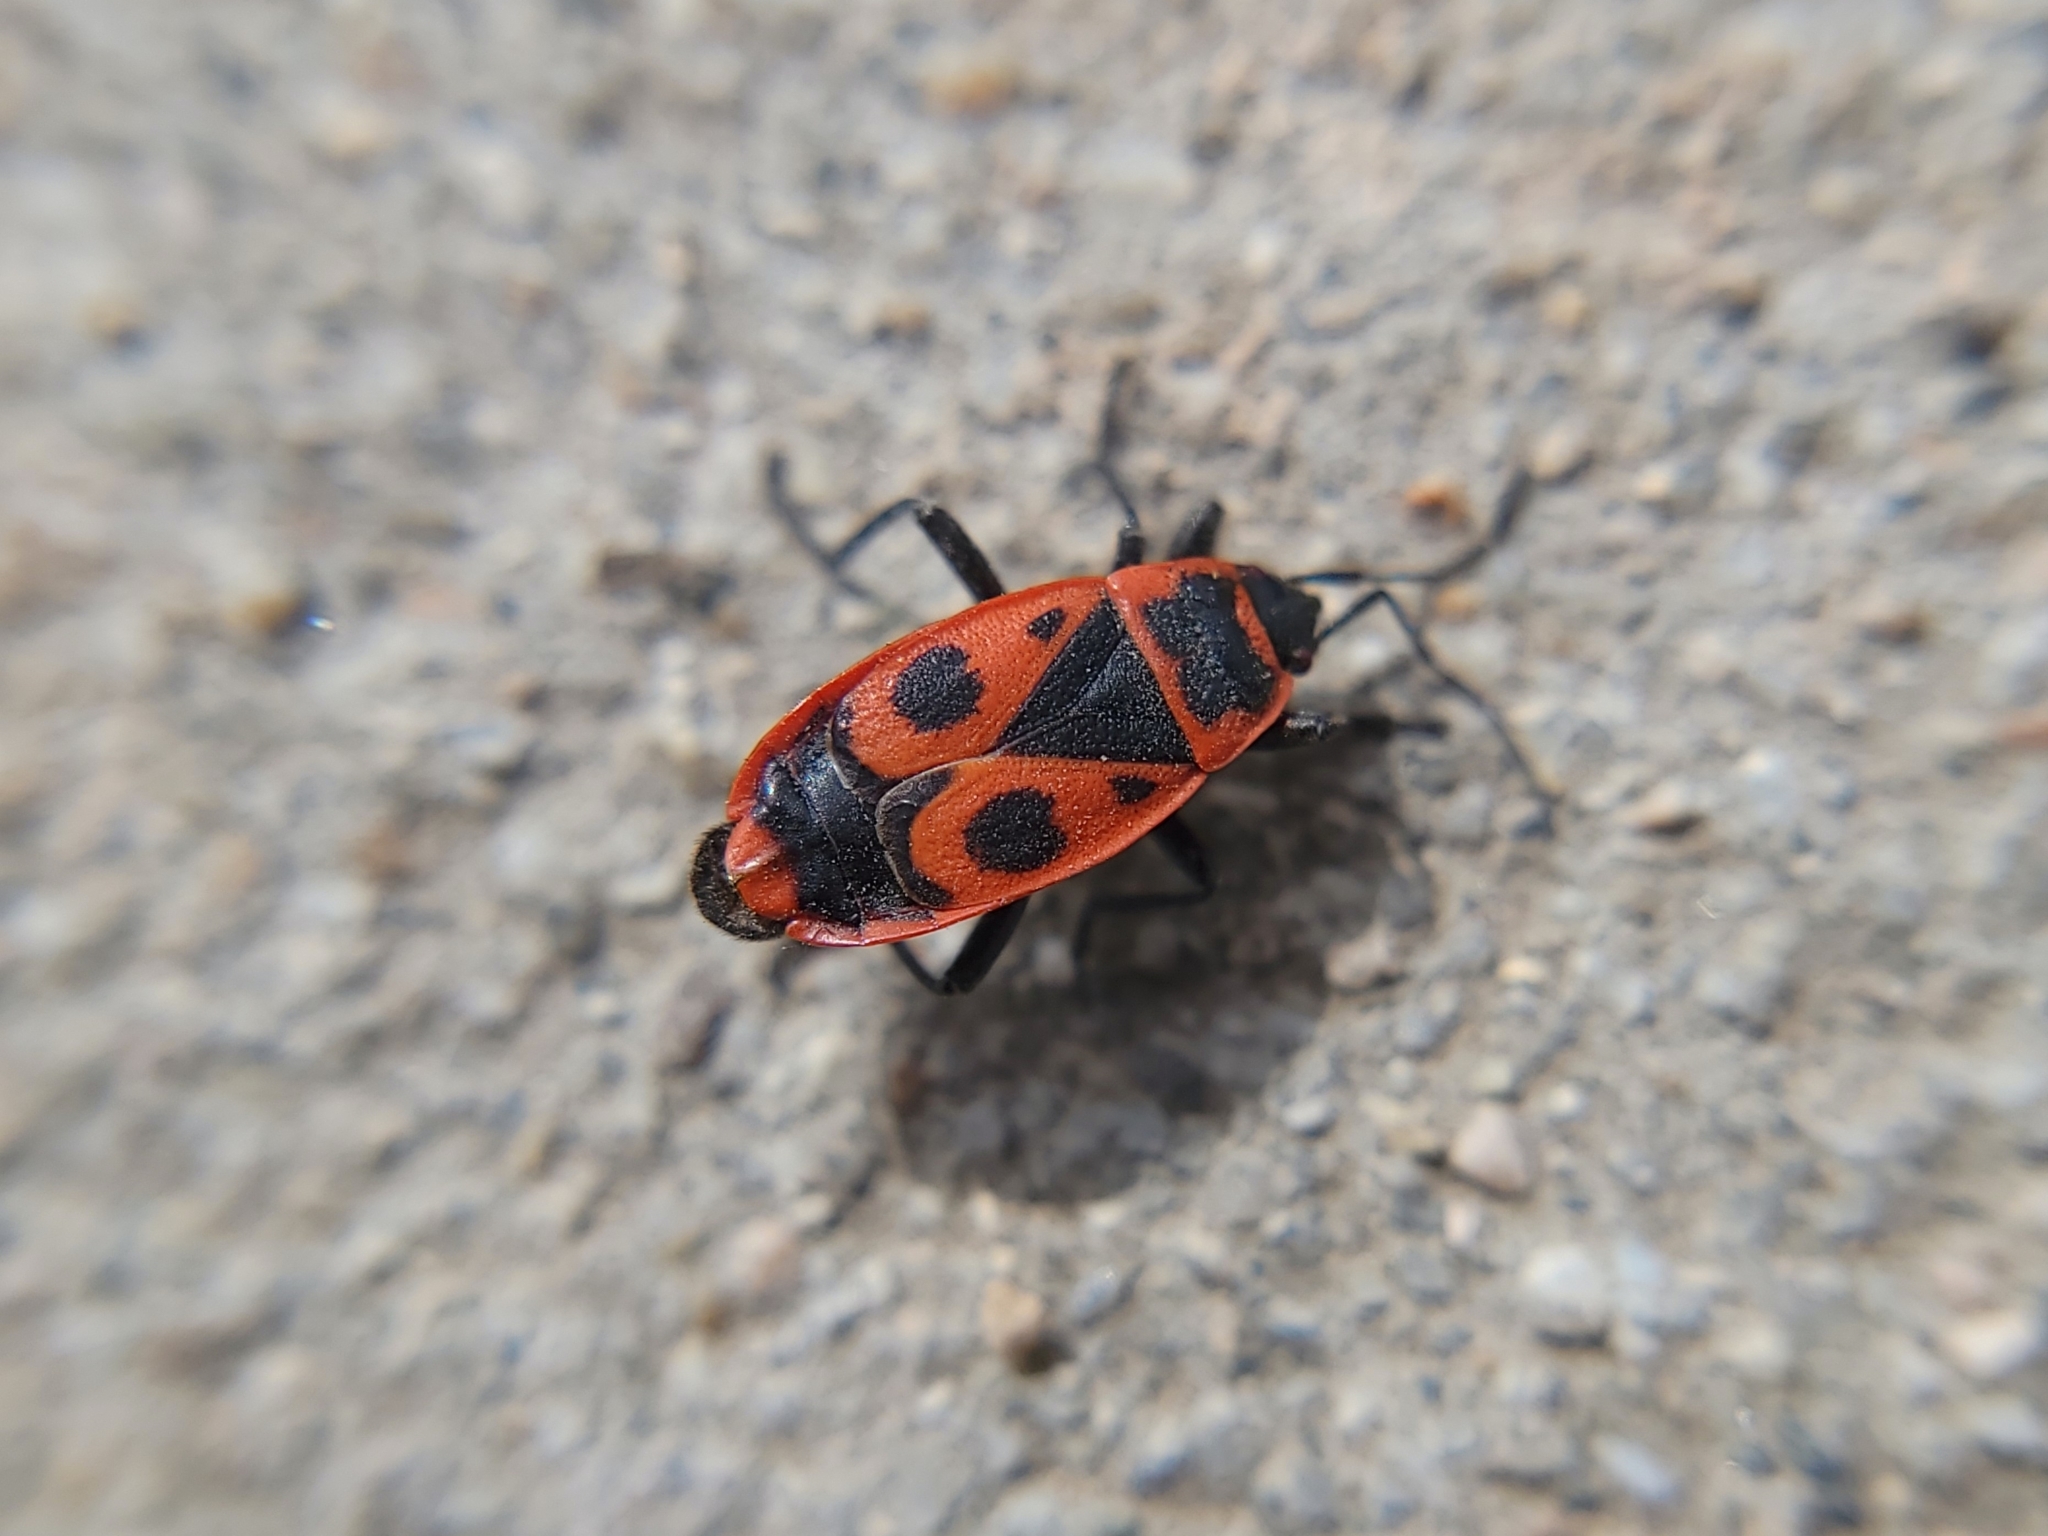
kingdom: Animalia
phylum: Arthropoda
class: Insecta
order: Hemiptera
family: Pyrrhocoridae
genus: Pyrrhocoris
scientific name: Pyrrhocoris apterus
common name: Firebug
